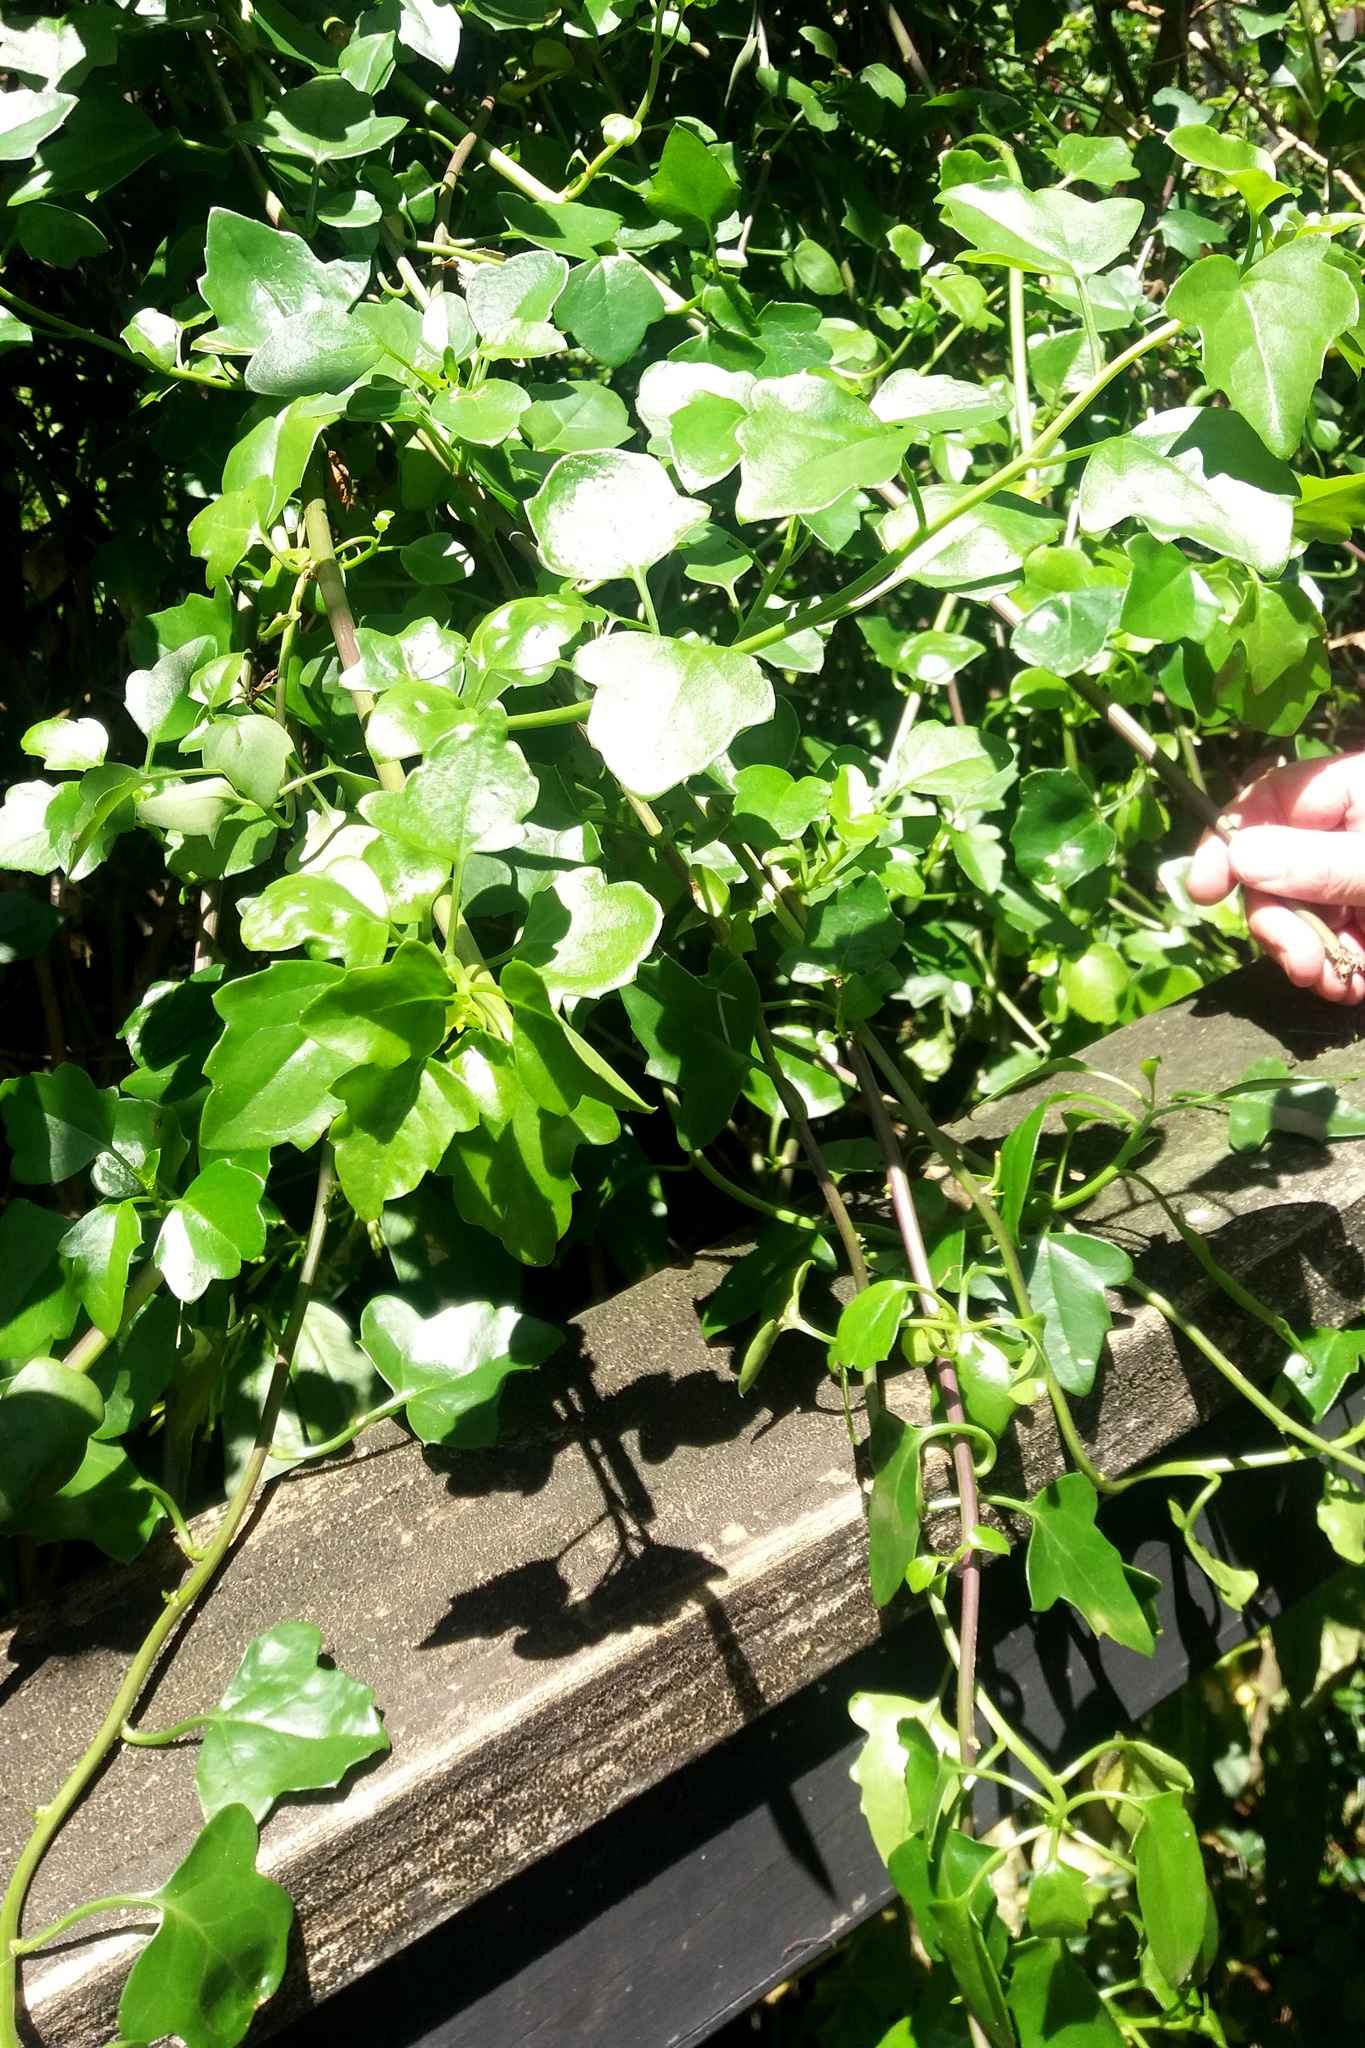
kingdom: Plantae
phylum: Tracheophyta
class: Magnoliopsida
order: Asterales
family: Asteraceae
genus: Senecio
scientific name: Senecio angulatus
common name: Climbing groundsel
